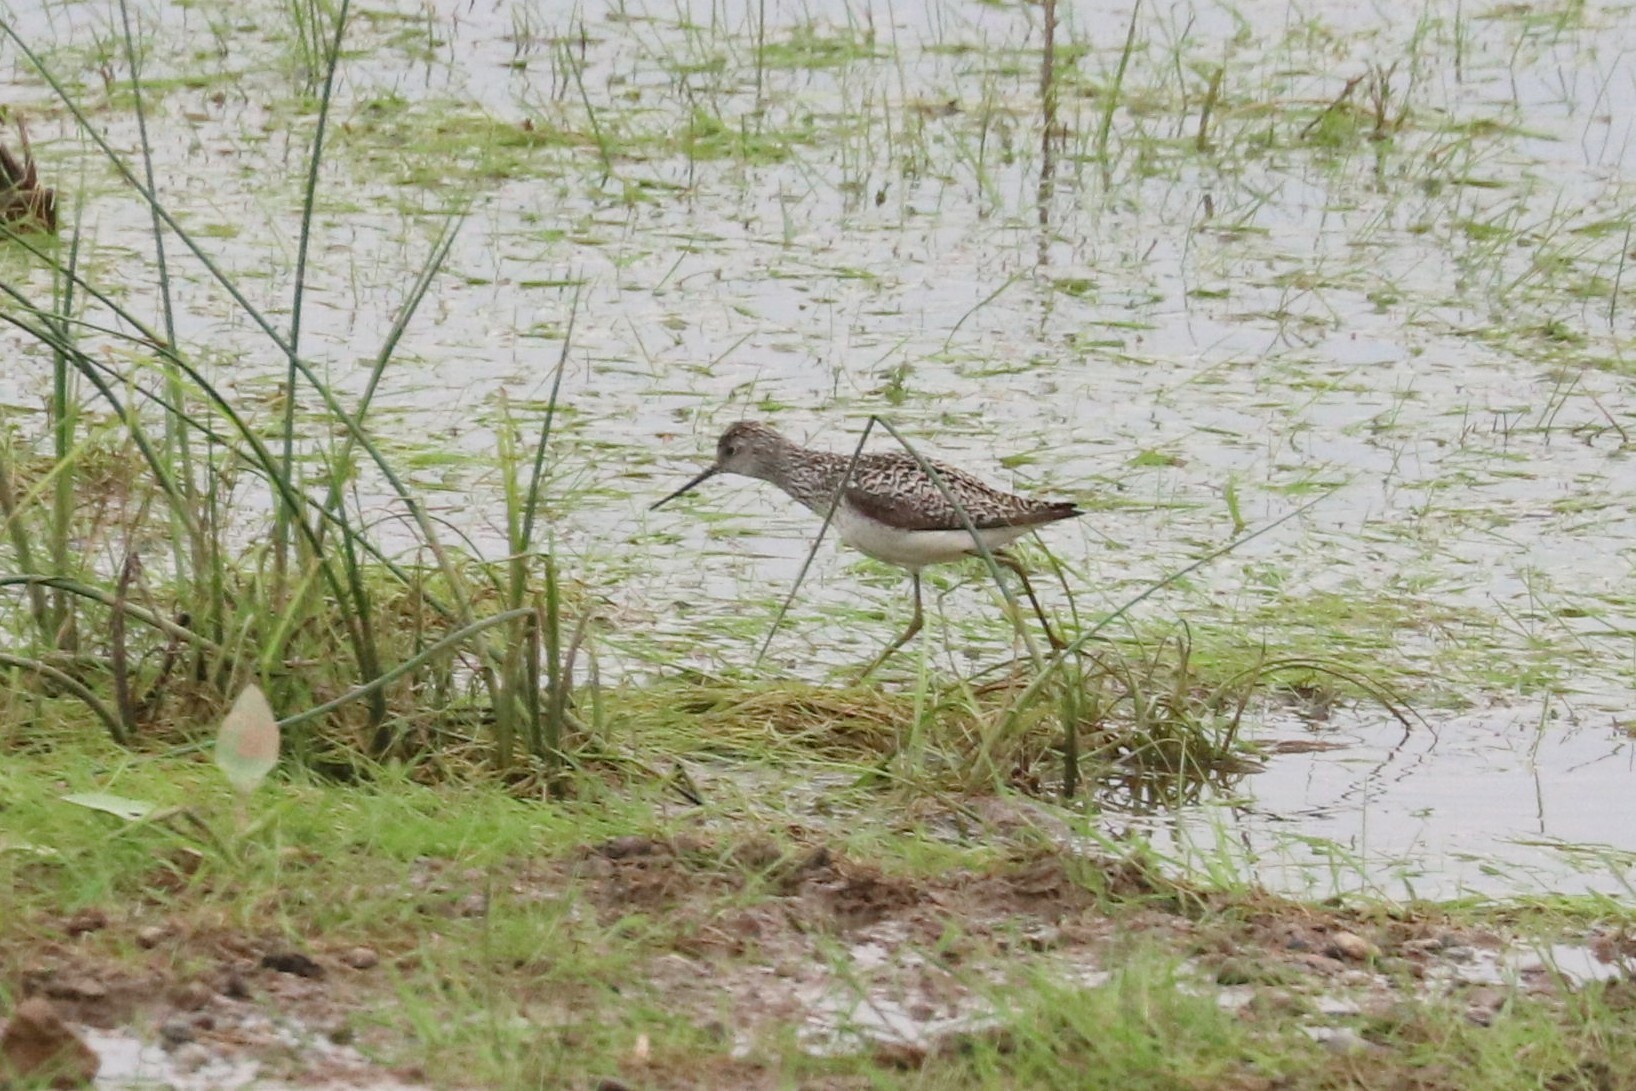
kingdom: Animalia
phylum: Chordata
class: Aves
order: Charadriiformes
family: Scolopacidae
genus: Tringa
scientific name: Tringa stagnatilis
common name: Marsh sandpiper
